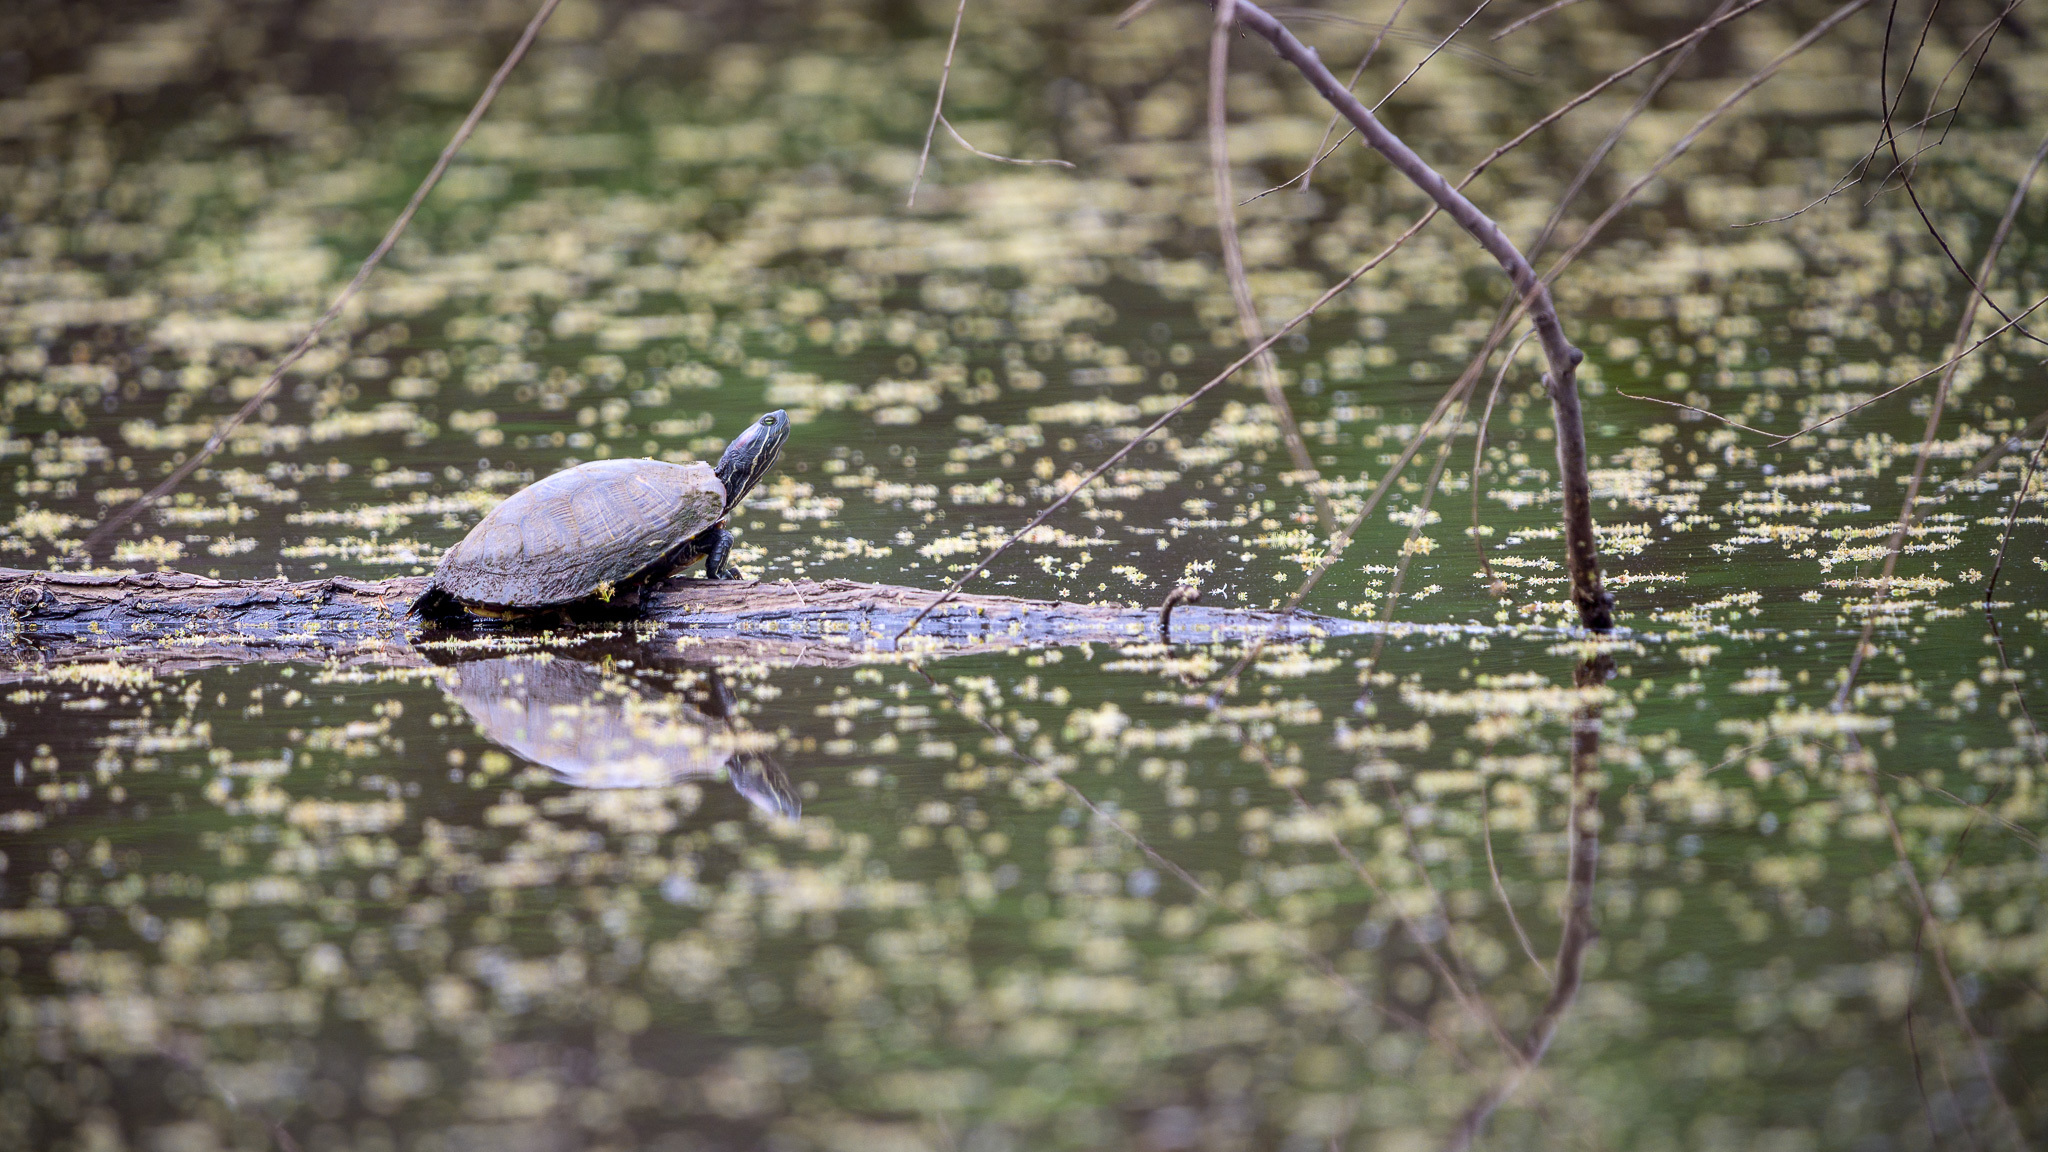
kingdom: Animalia
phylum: Chordata
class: Testudines
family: Emydidae
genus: Trachemys
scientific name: Trachemys scripta
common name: Slider
